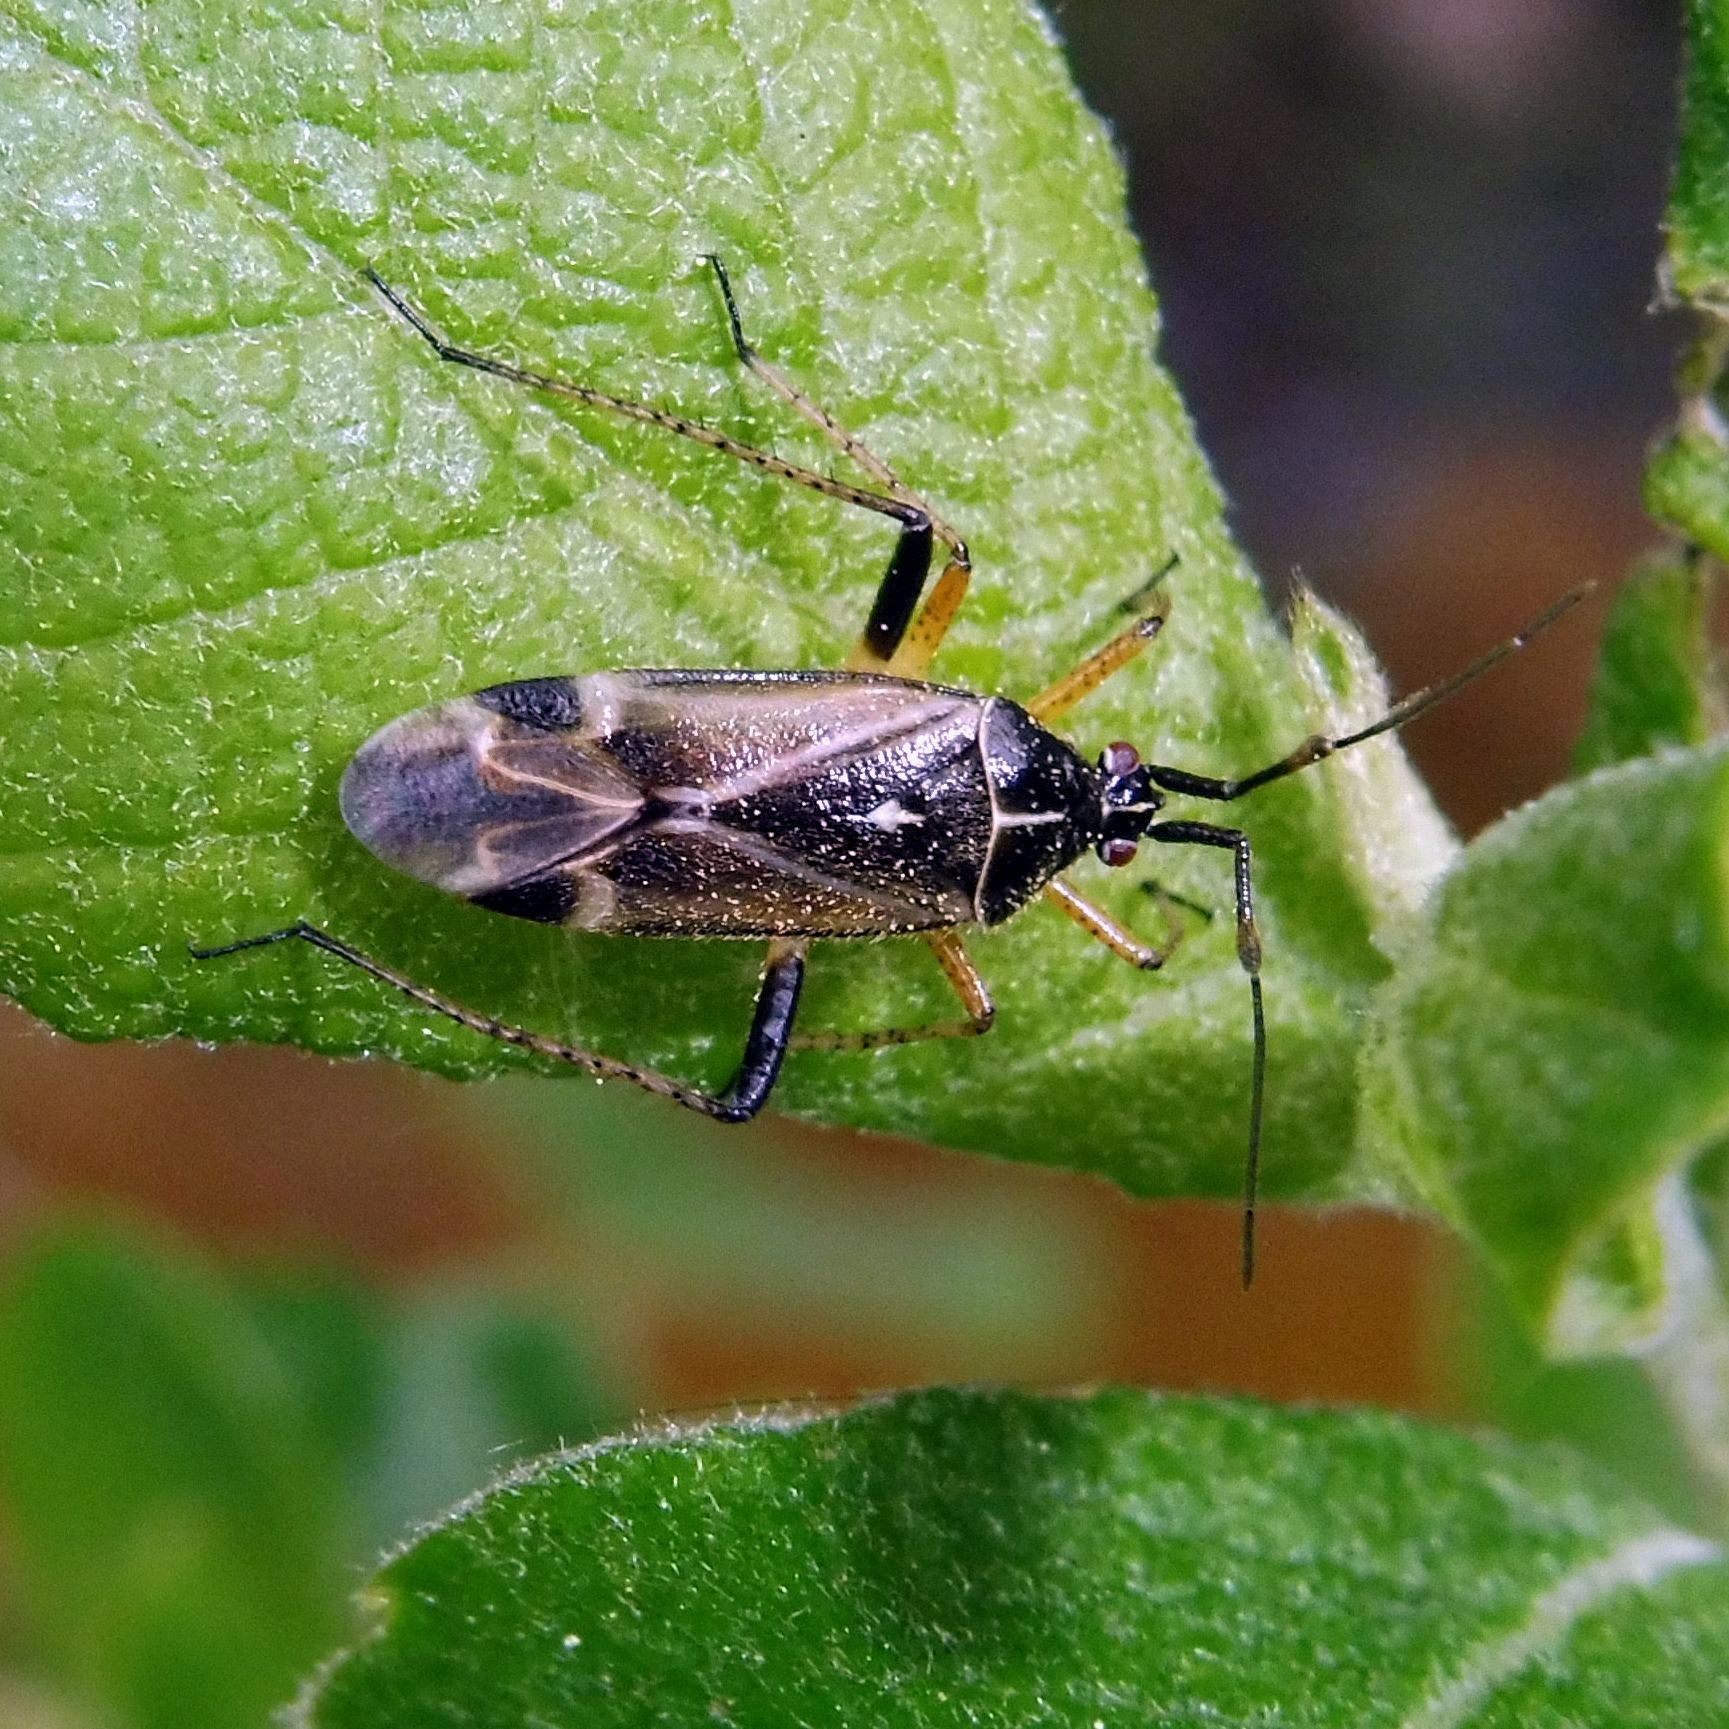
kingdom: Animalia
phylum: Arthropoda
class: Insecta
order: Hemiptera
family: Miridae
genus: Harpocera
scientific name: Harpocera thoracica
